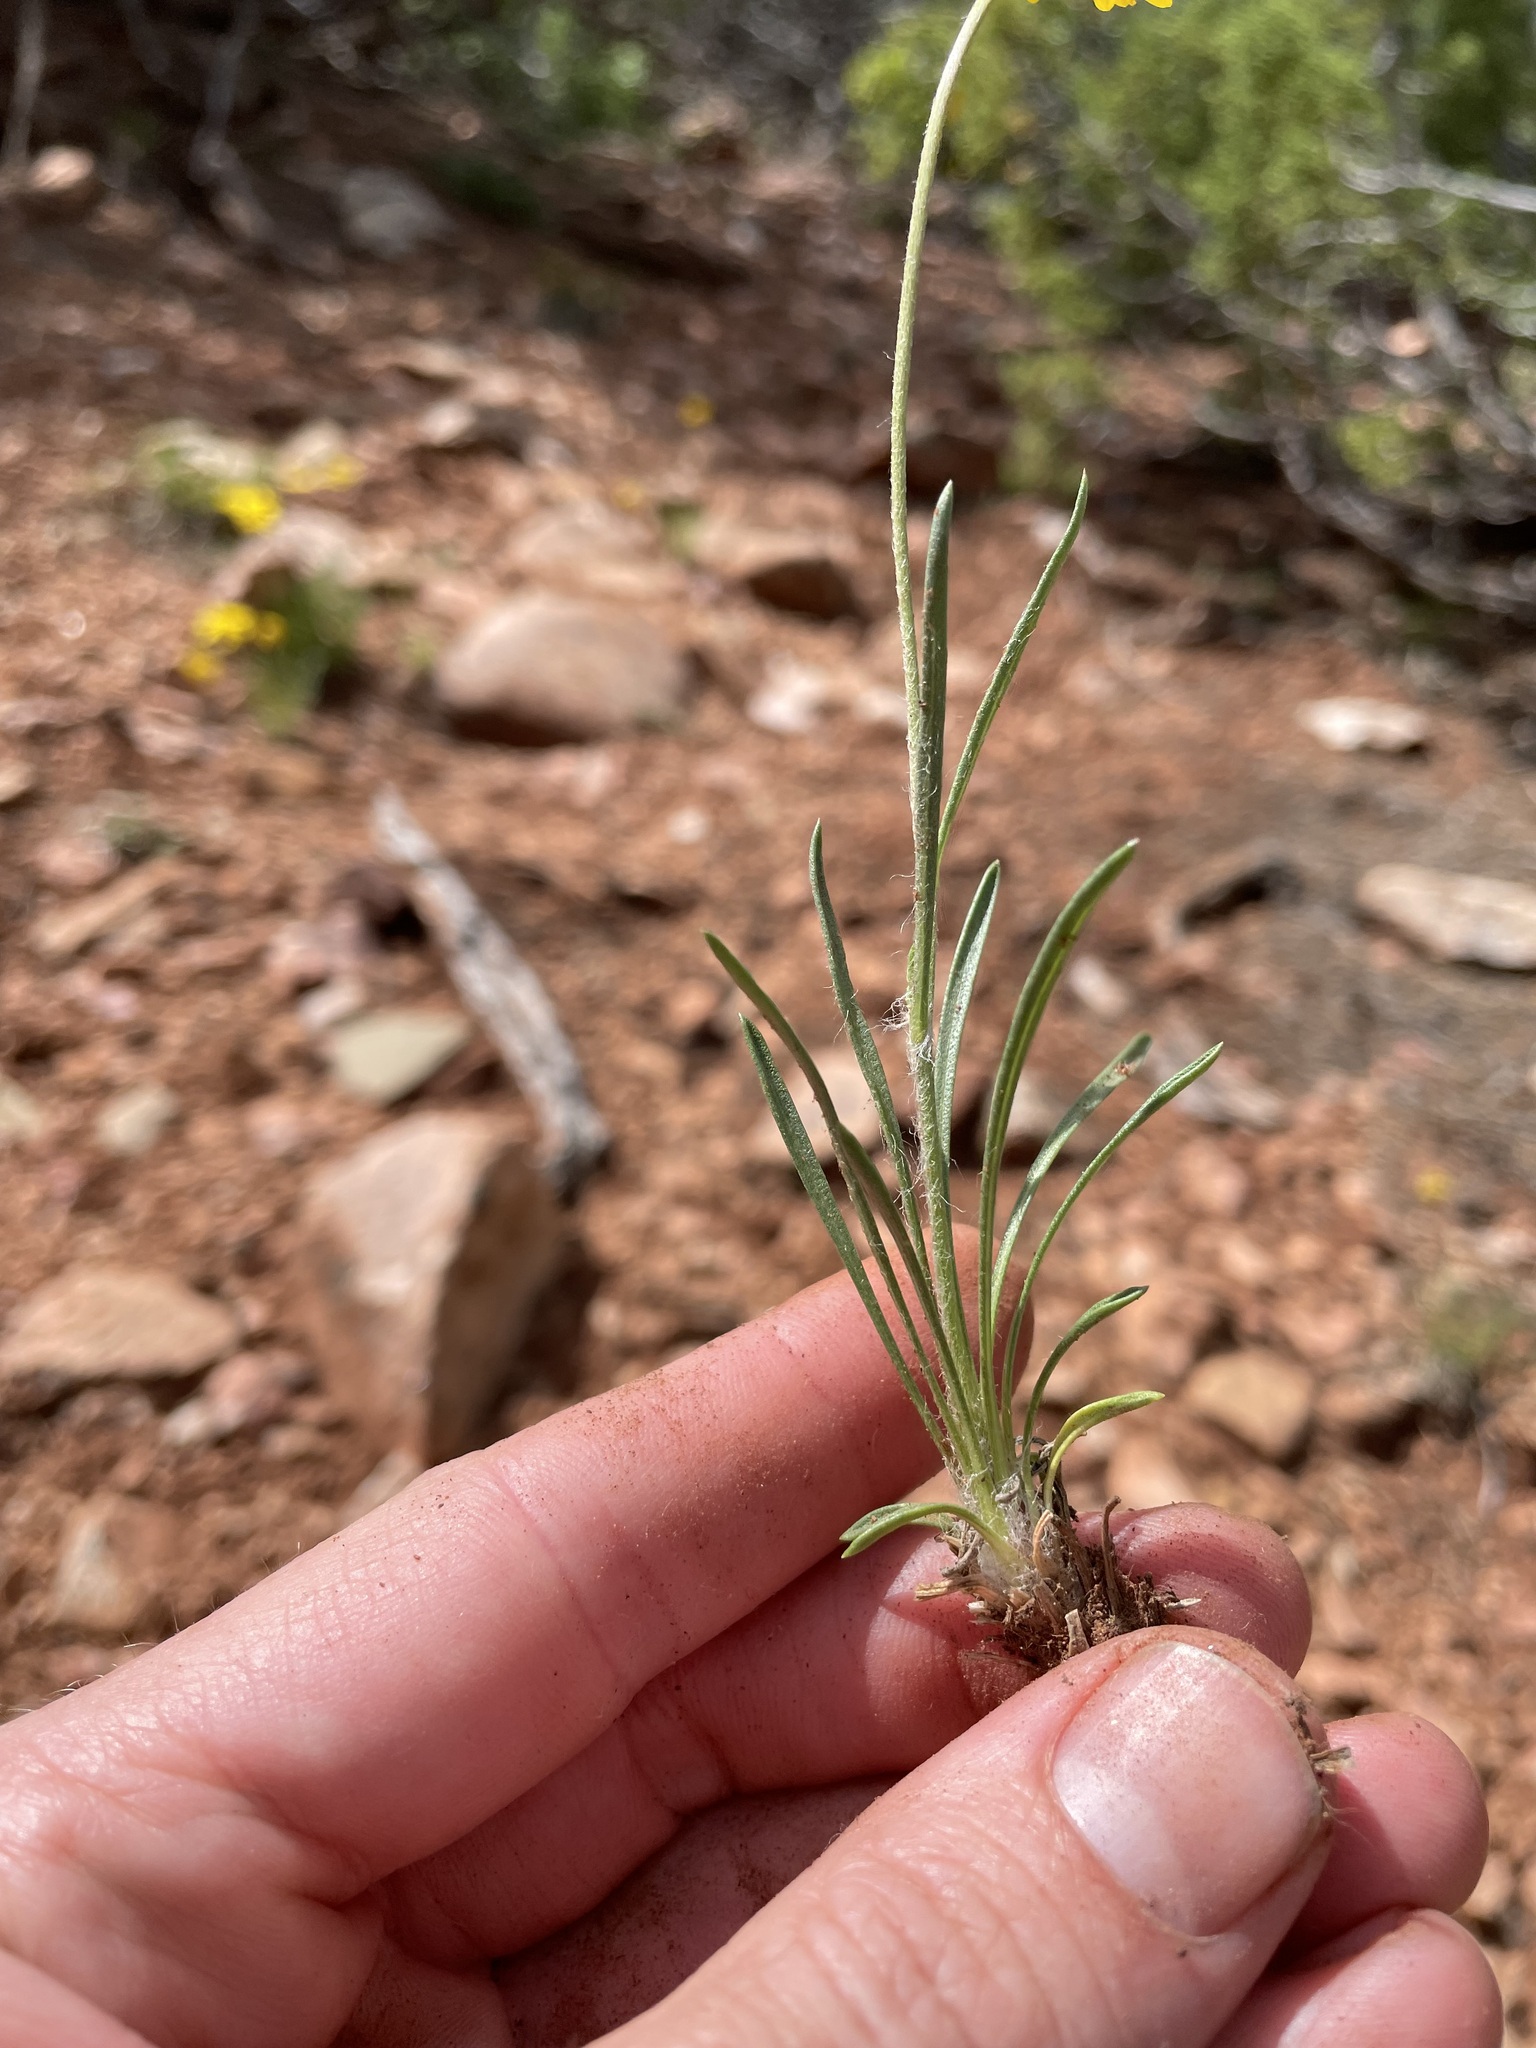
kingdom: Plantae
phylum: Tracheophyta
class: Magnoliopsida
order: Asterales
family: Asteraceae
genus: Tetraneuris
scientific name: Tetraneuris ivesiana
